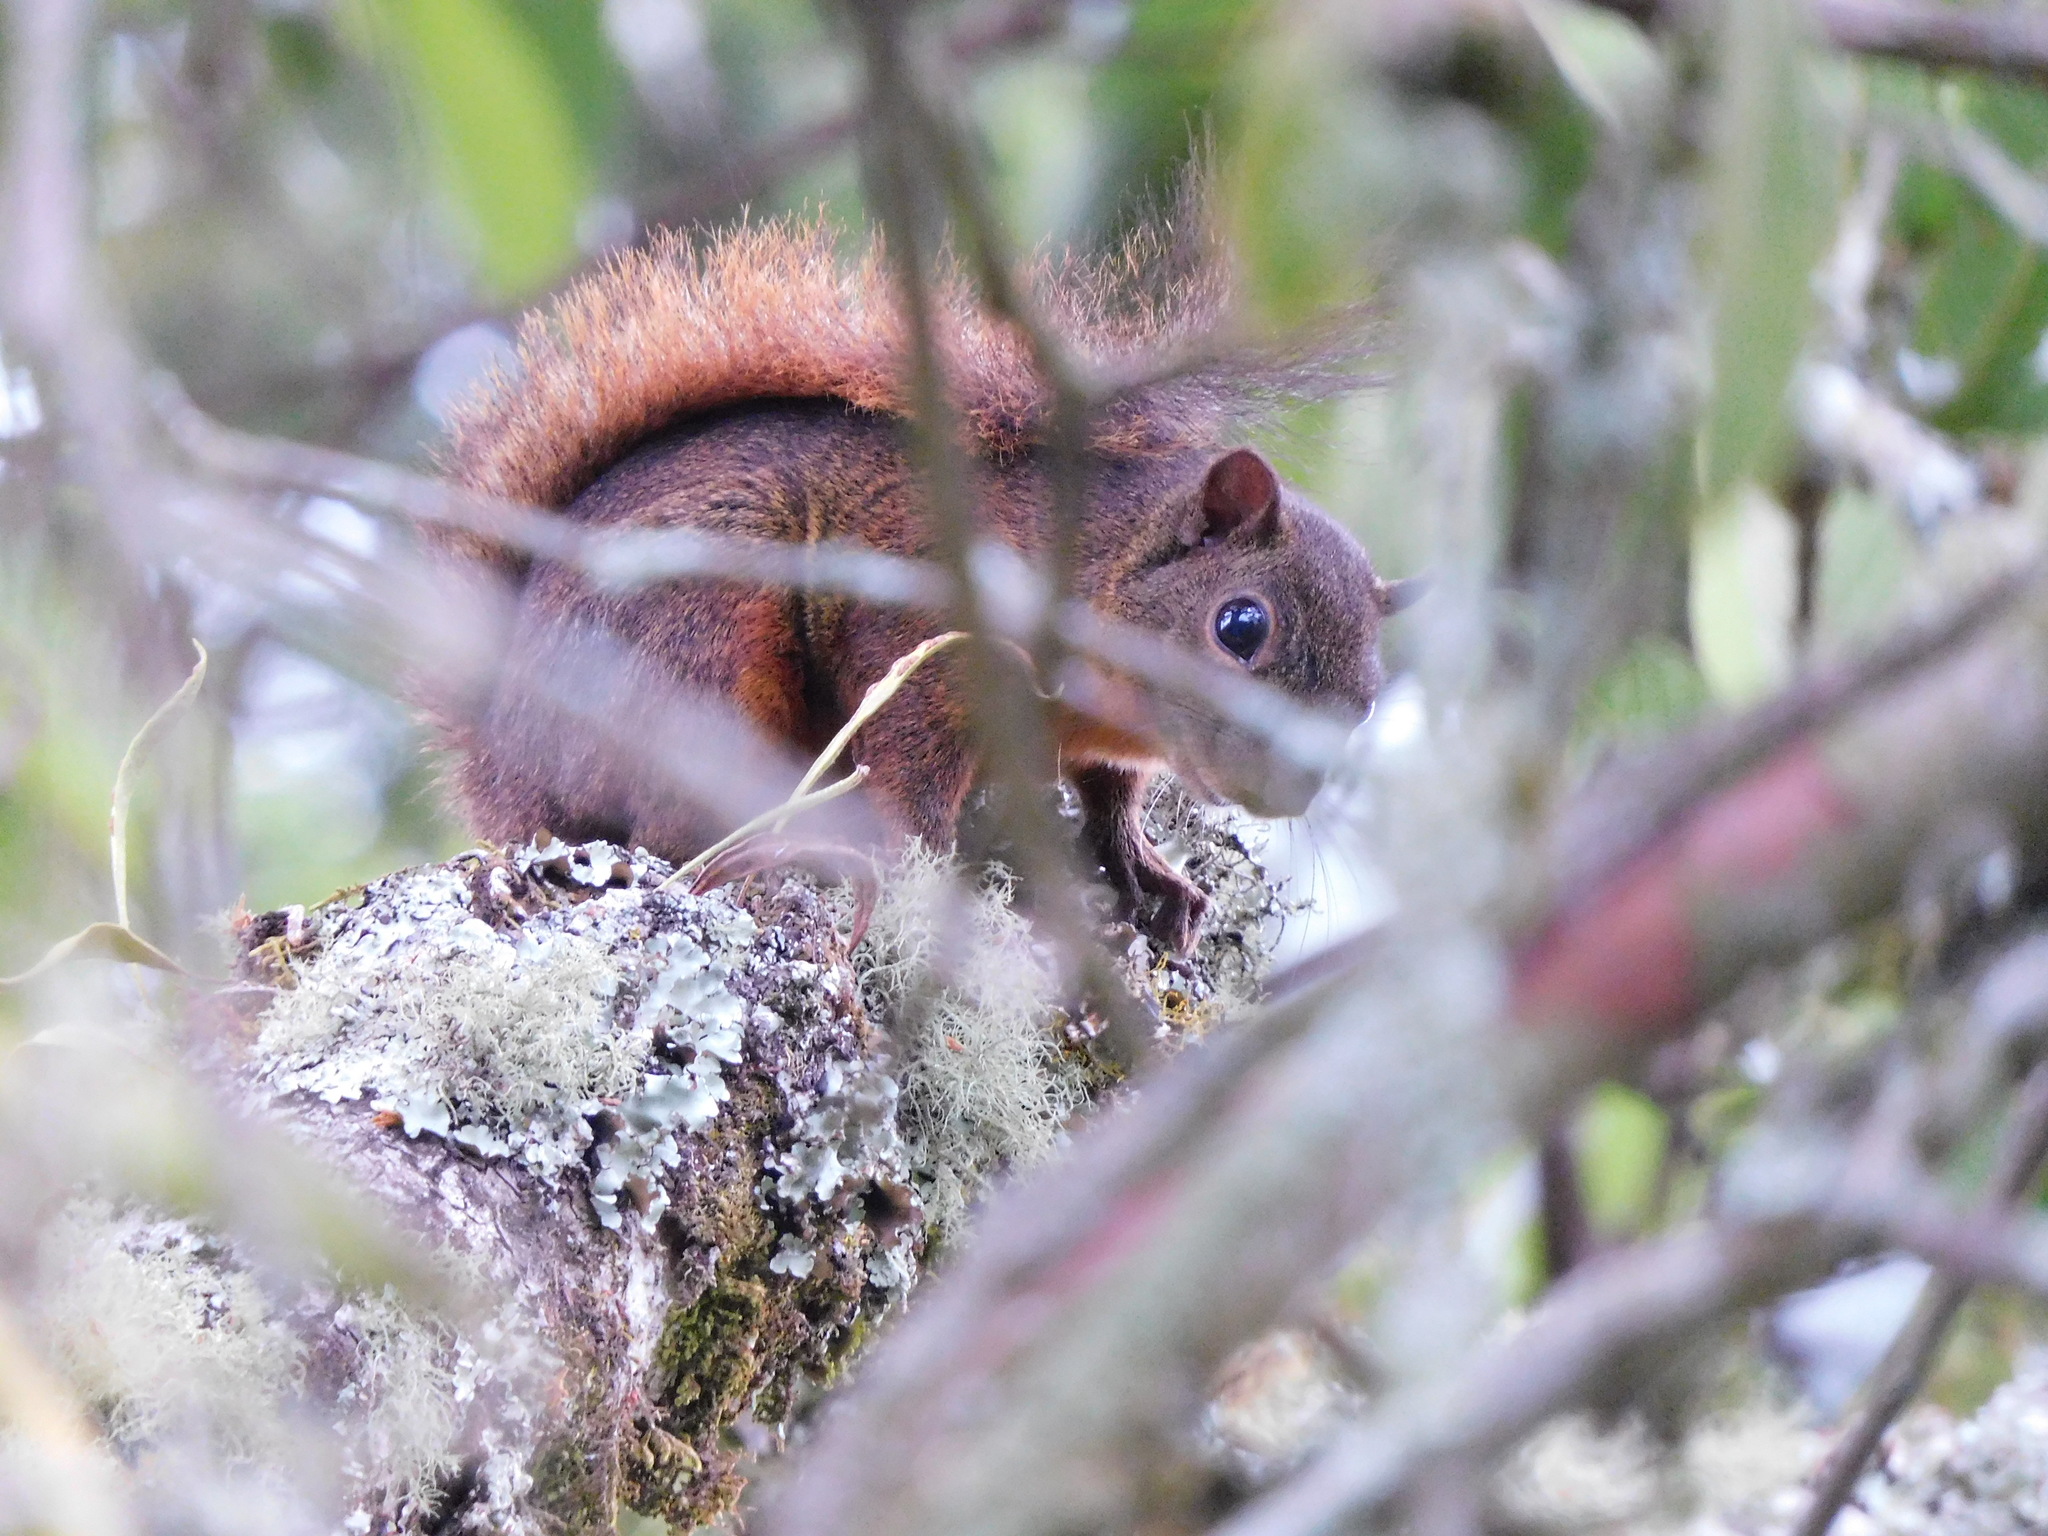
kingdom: Animalia
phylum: Chordata
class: Mammalia
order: Rodentia
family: Sciuridae
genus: Sciurus
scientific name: Sciurus granatensis
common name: Red-tailed squirrel
